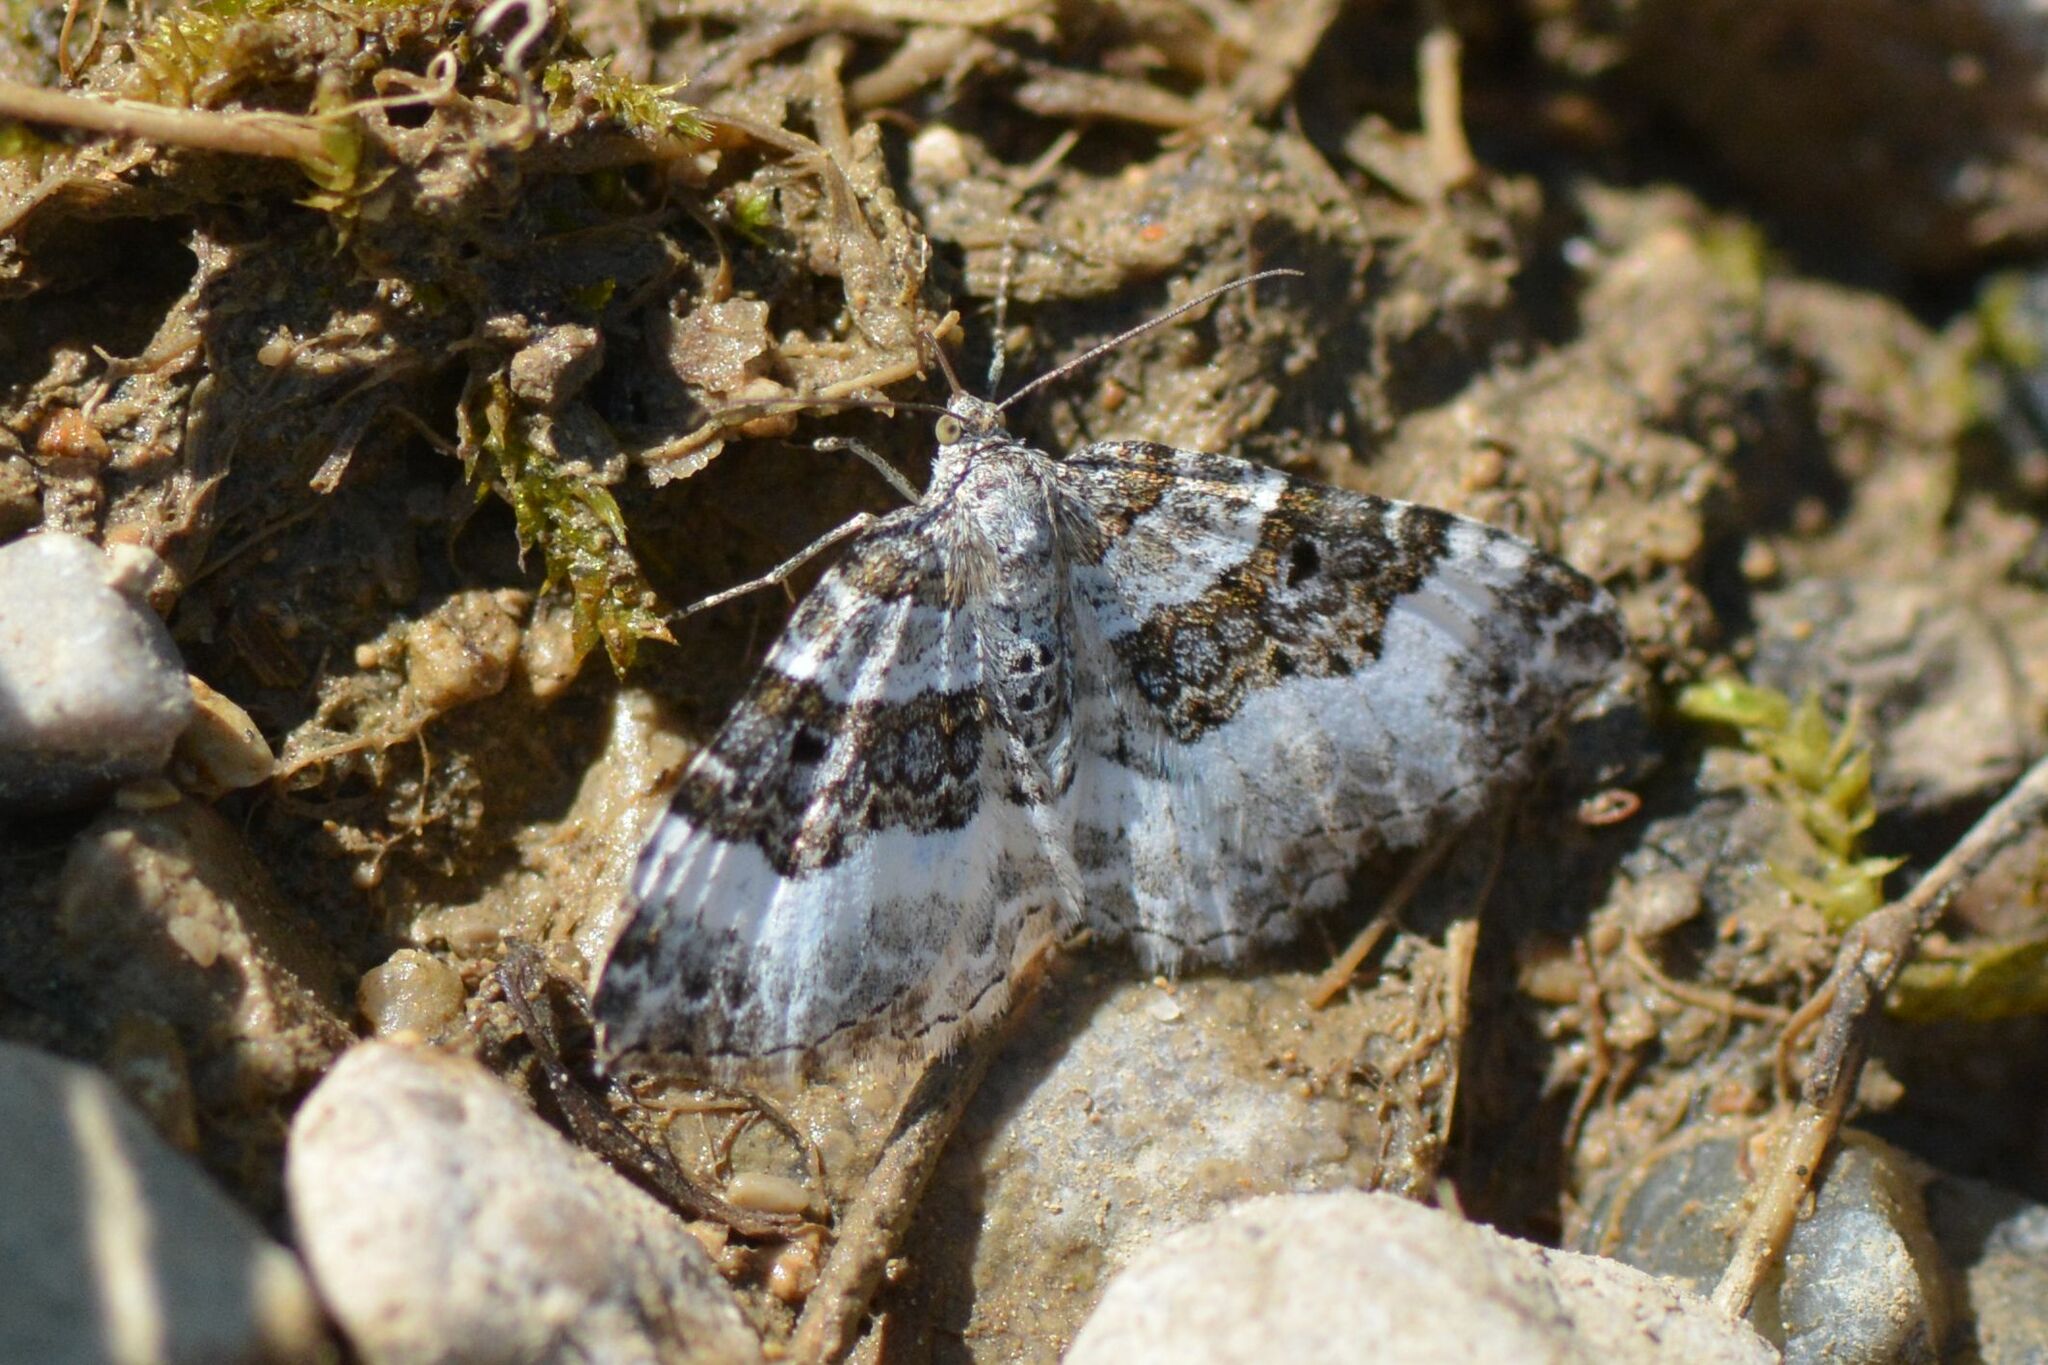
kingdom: Animalia
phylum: Arthropoda
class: Insecta
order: Lepidoptera
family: Geometridae
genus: Epirrhoe
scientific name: Epirrhoe alternata
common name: Common carpet
